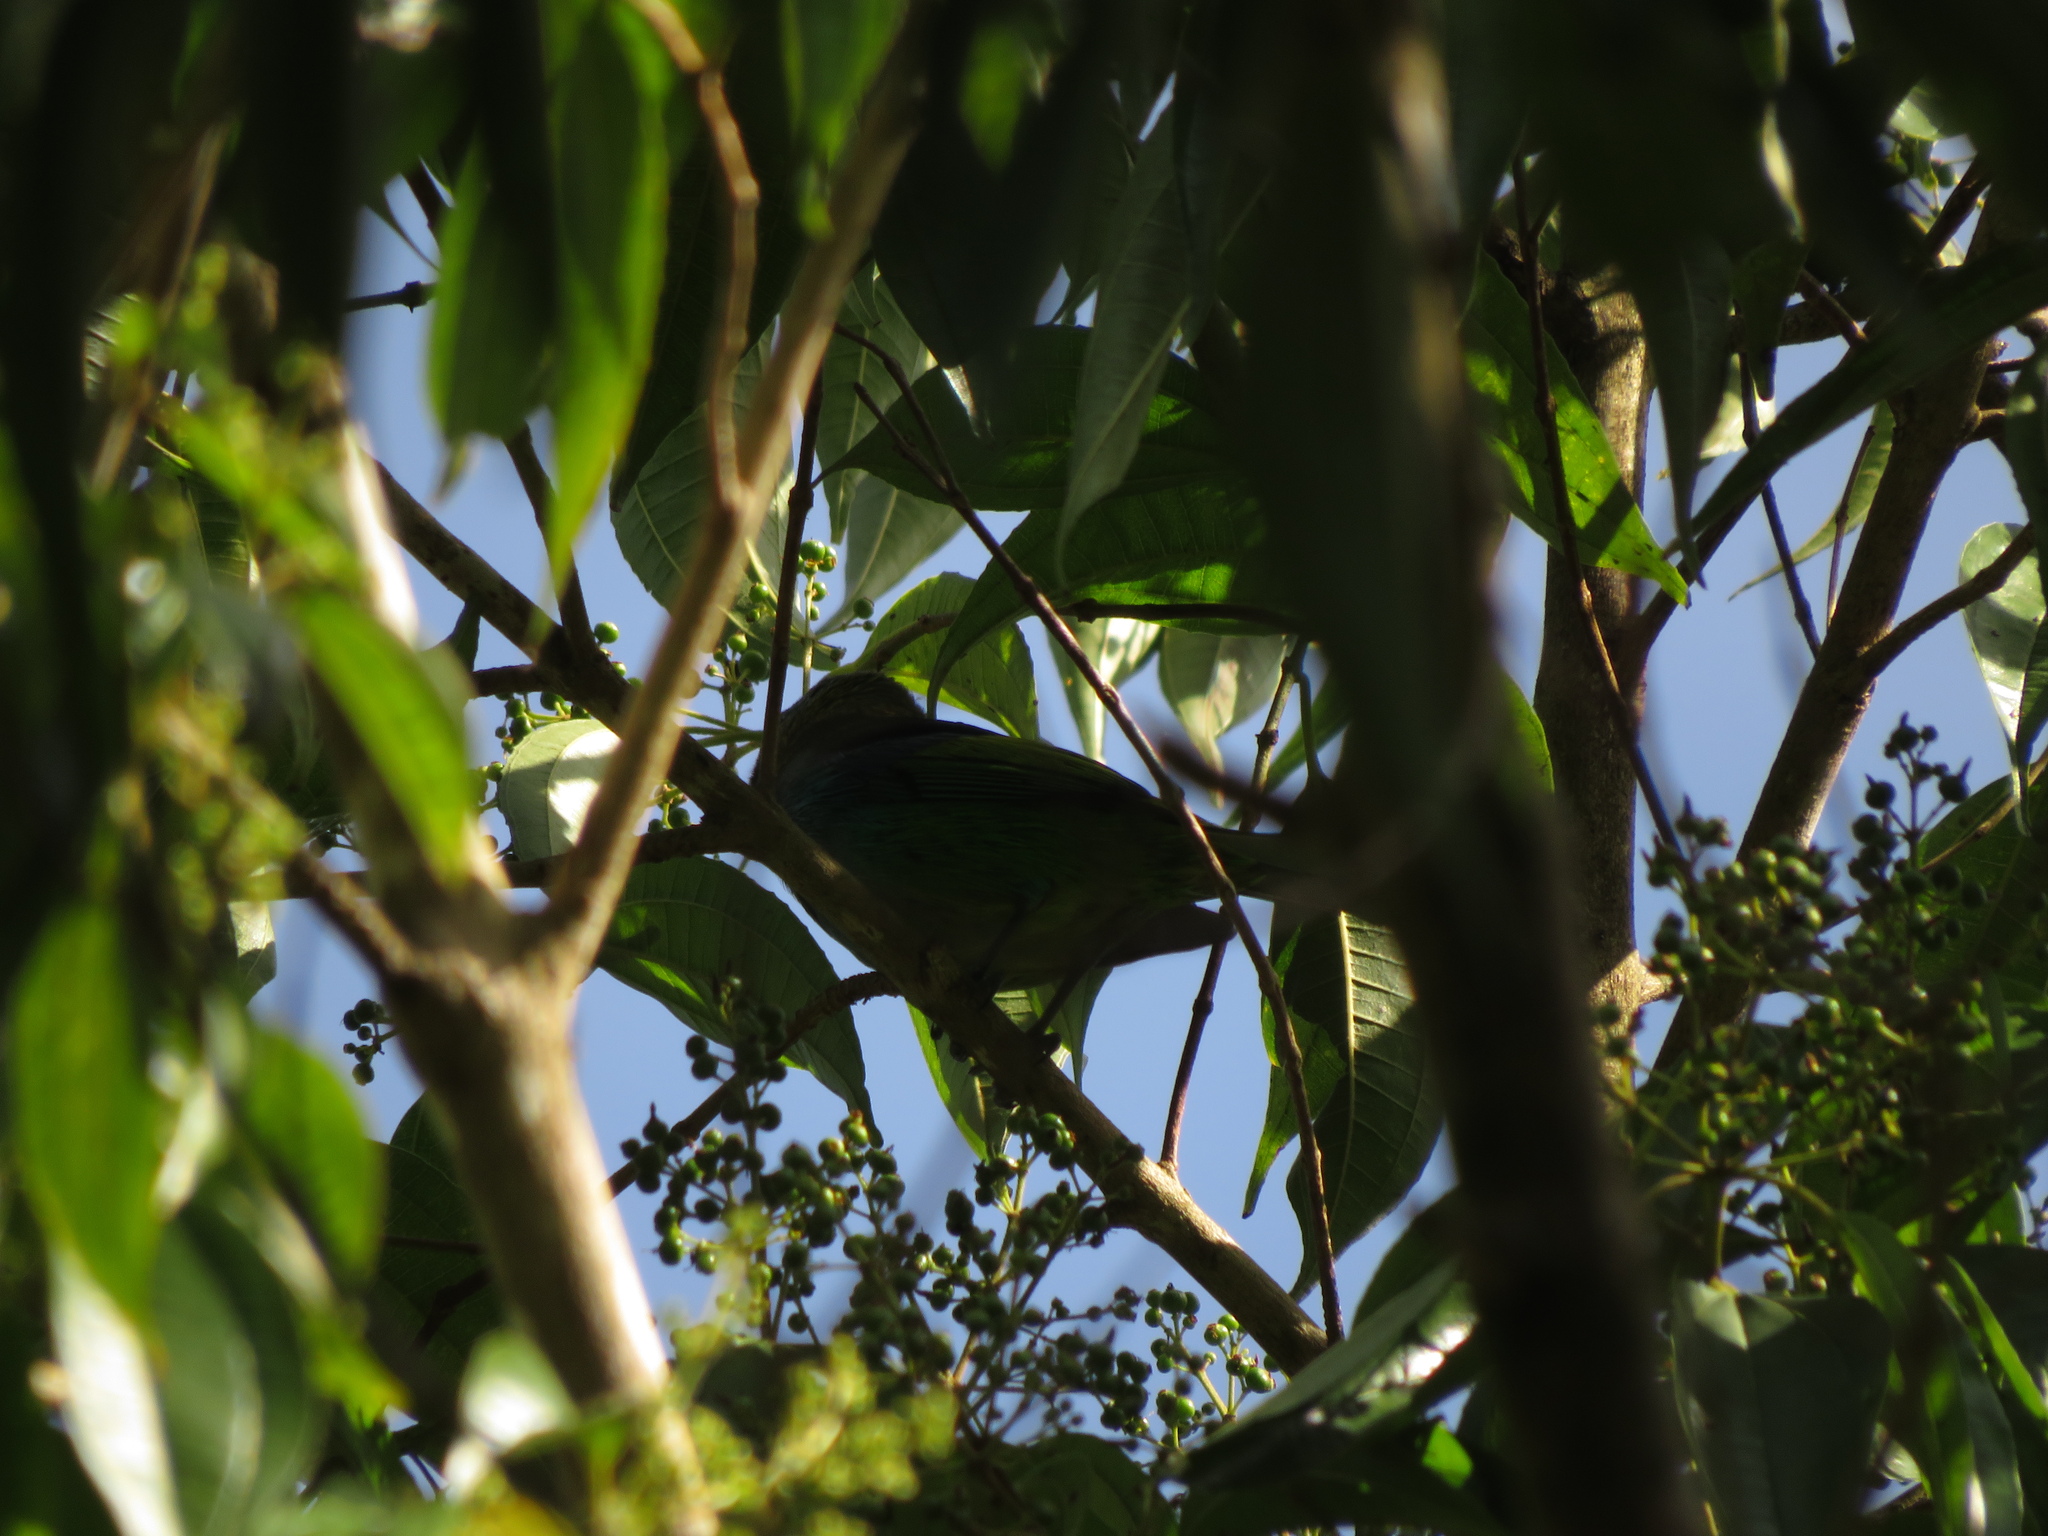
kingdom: Animalia
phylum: Chordata
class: Aves
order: Passeriformes
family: Thraupidae
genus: Tangara
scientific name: Tangara seledon
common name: Green-headed tanager
